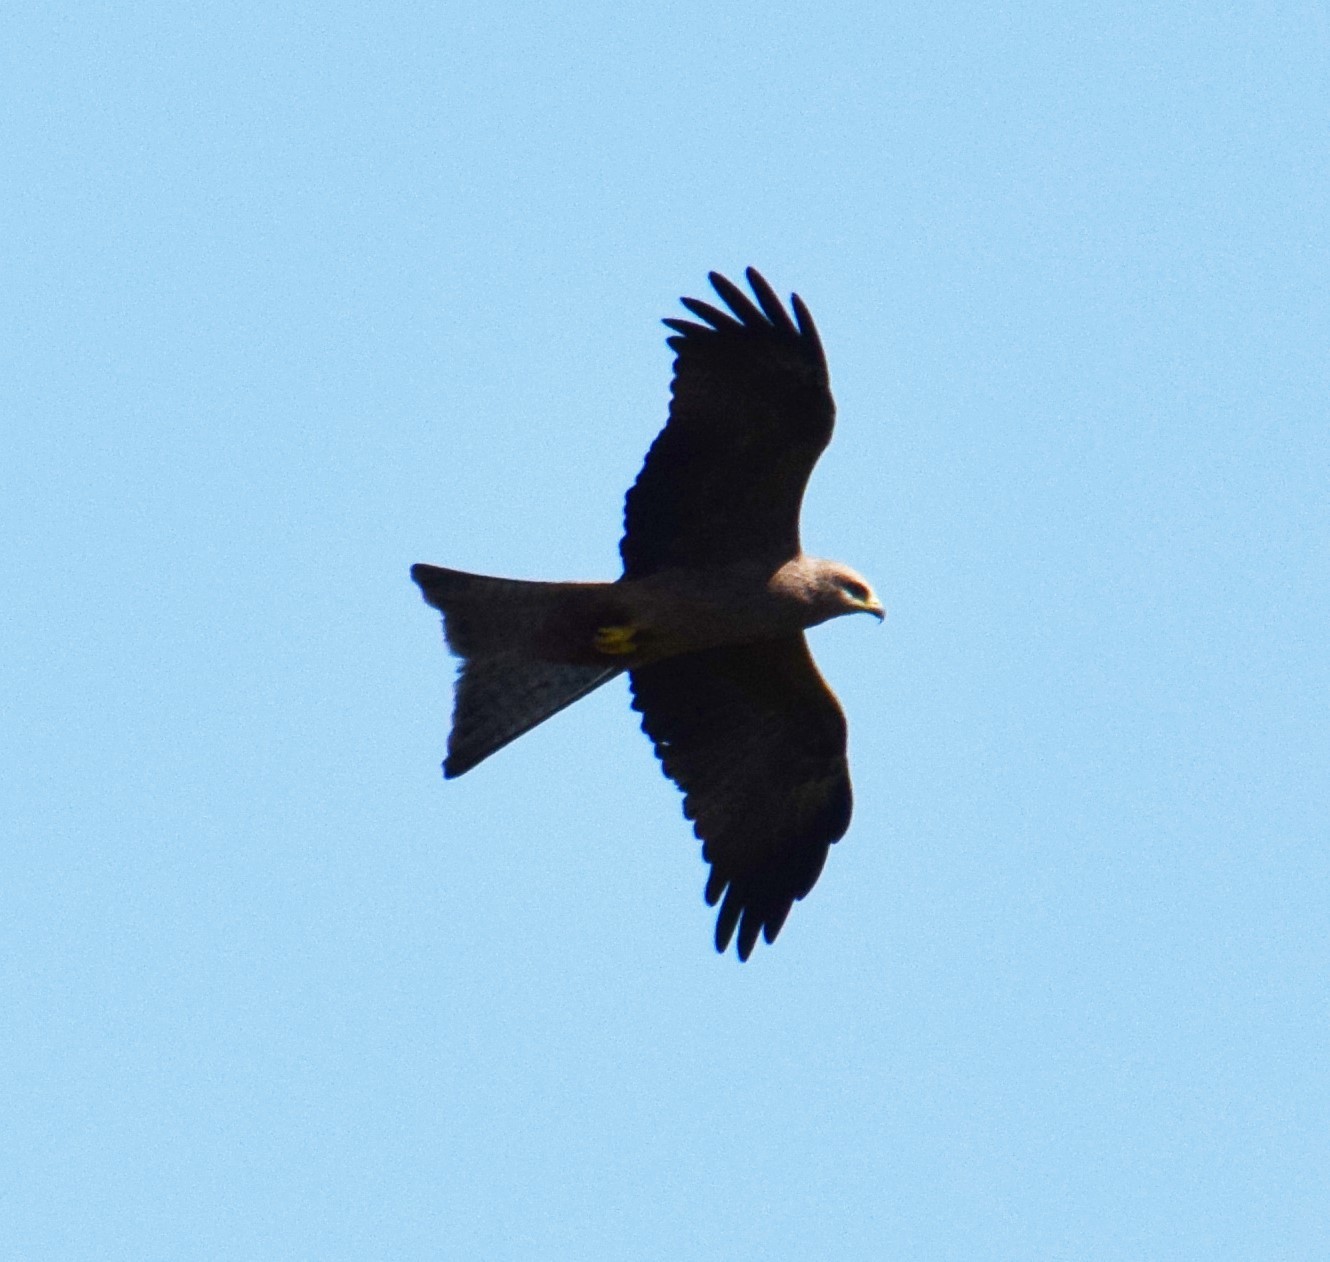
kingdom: Animalia
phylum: Chordata
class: Aves
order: Accipitriformes
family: Accipitridae
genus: Milvus
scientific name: Milvus migrans
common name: Black kite
